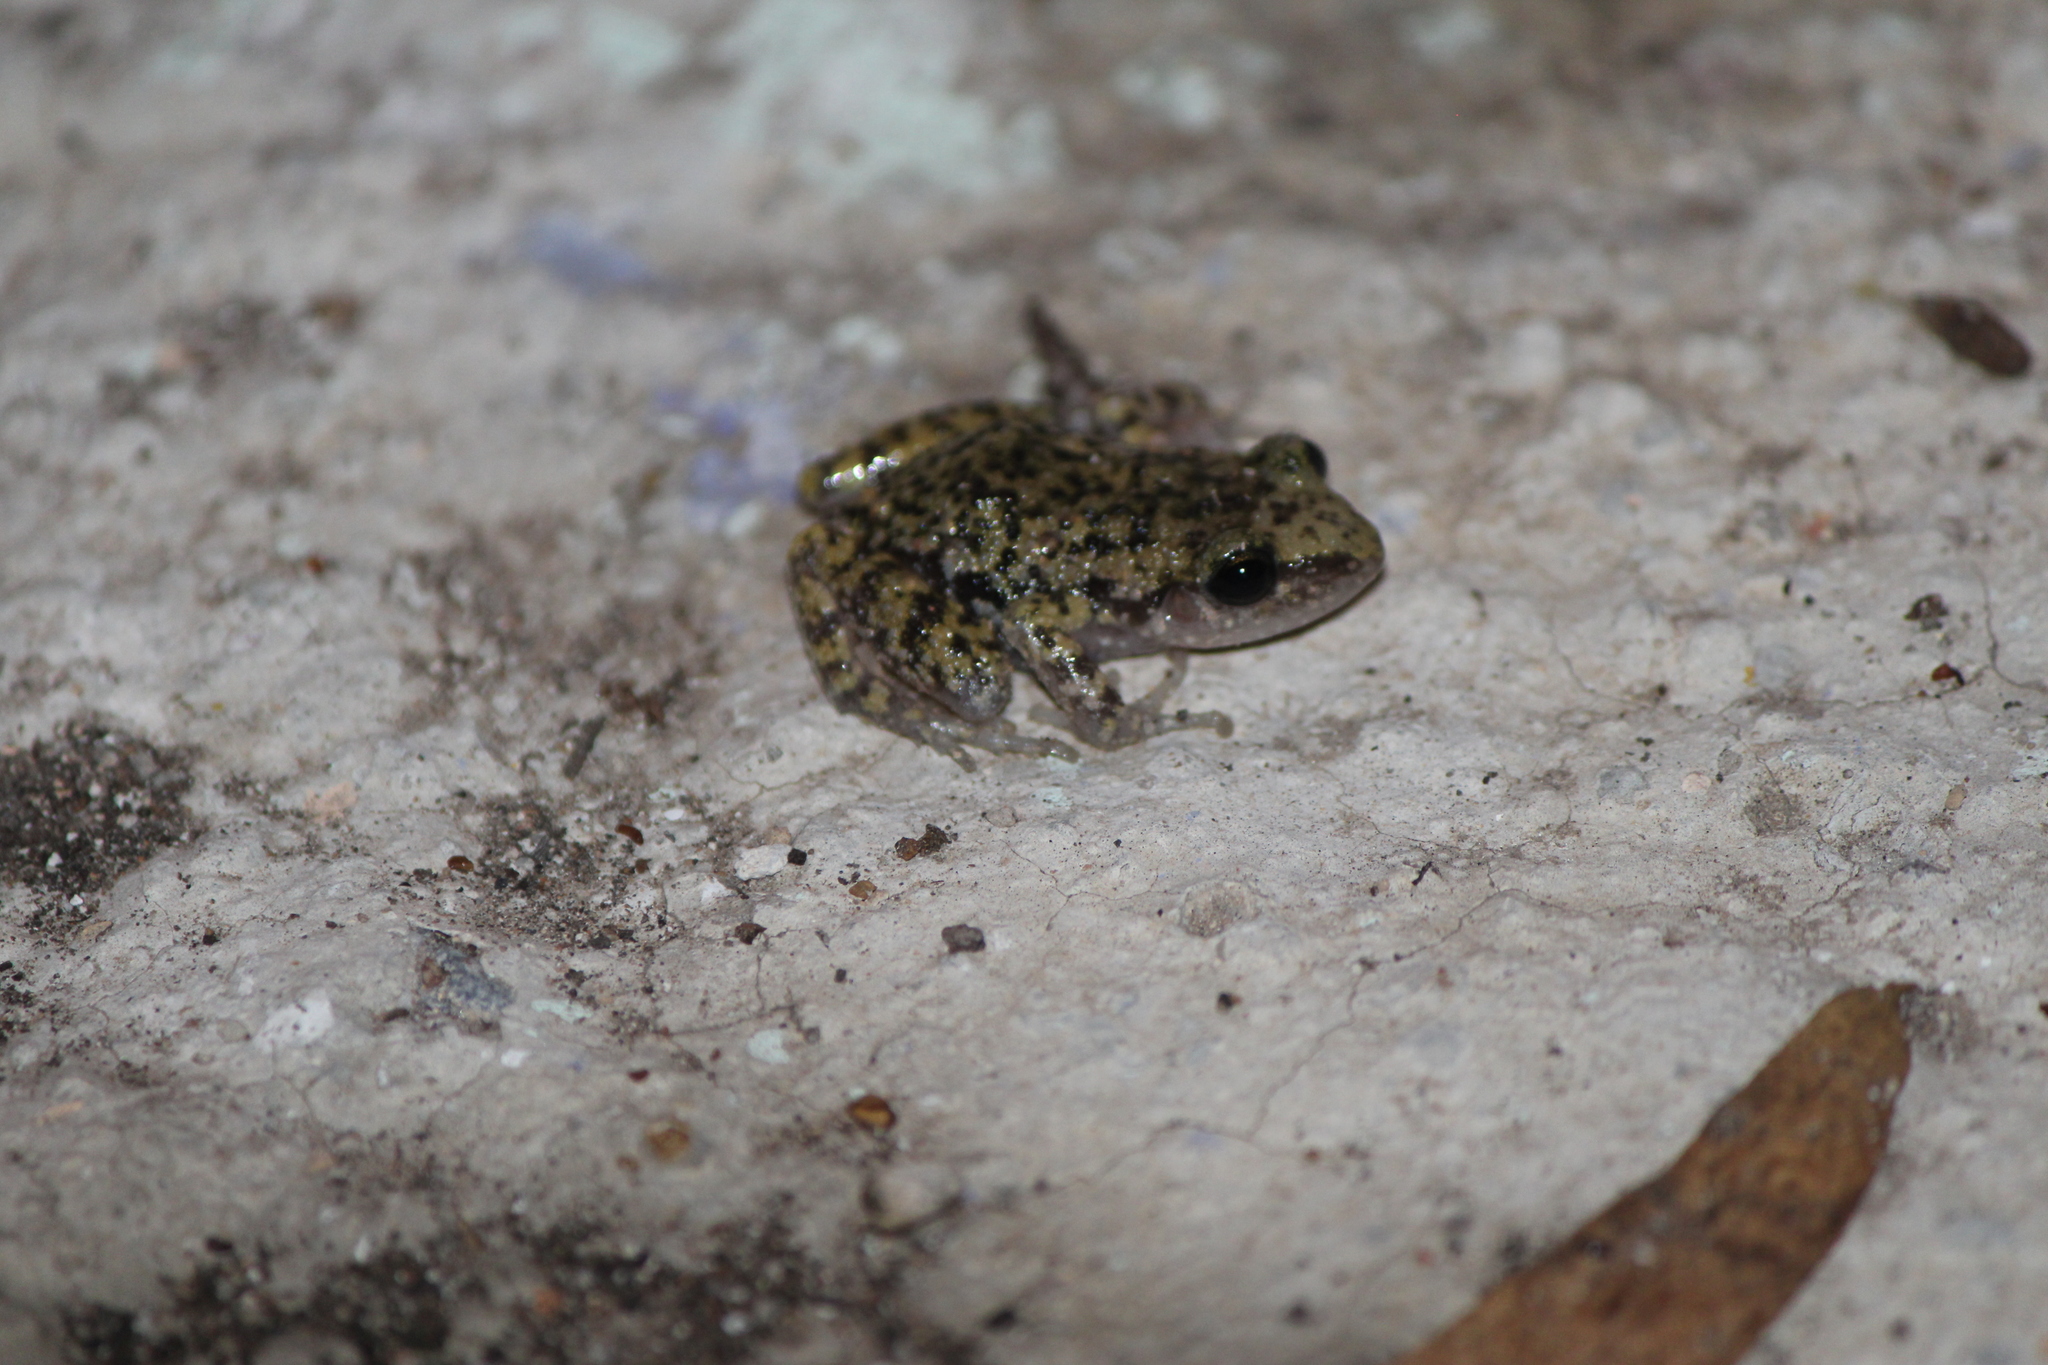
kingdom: Animalia
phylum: Chordata
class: Amphibia
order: Anura
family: Eleutherodactylidae
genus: Eleutherodactylus
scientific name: Eleutherodactylus guttilatus
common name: Spotted chirping frog
